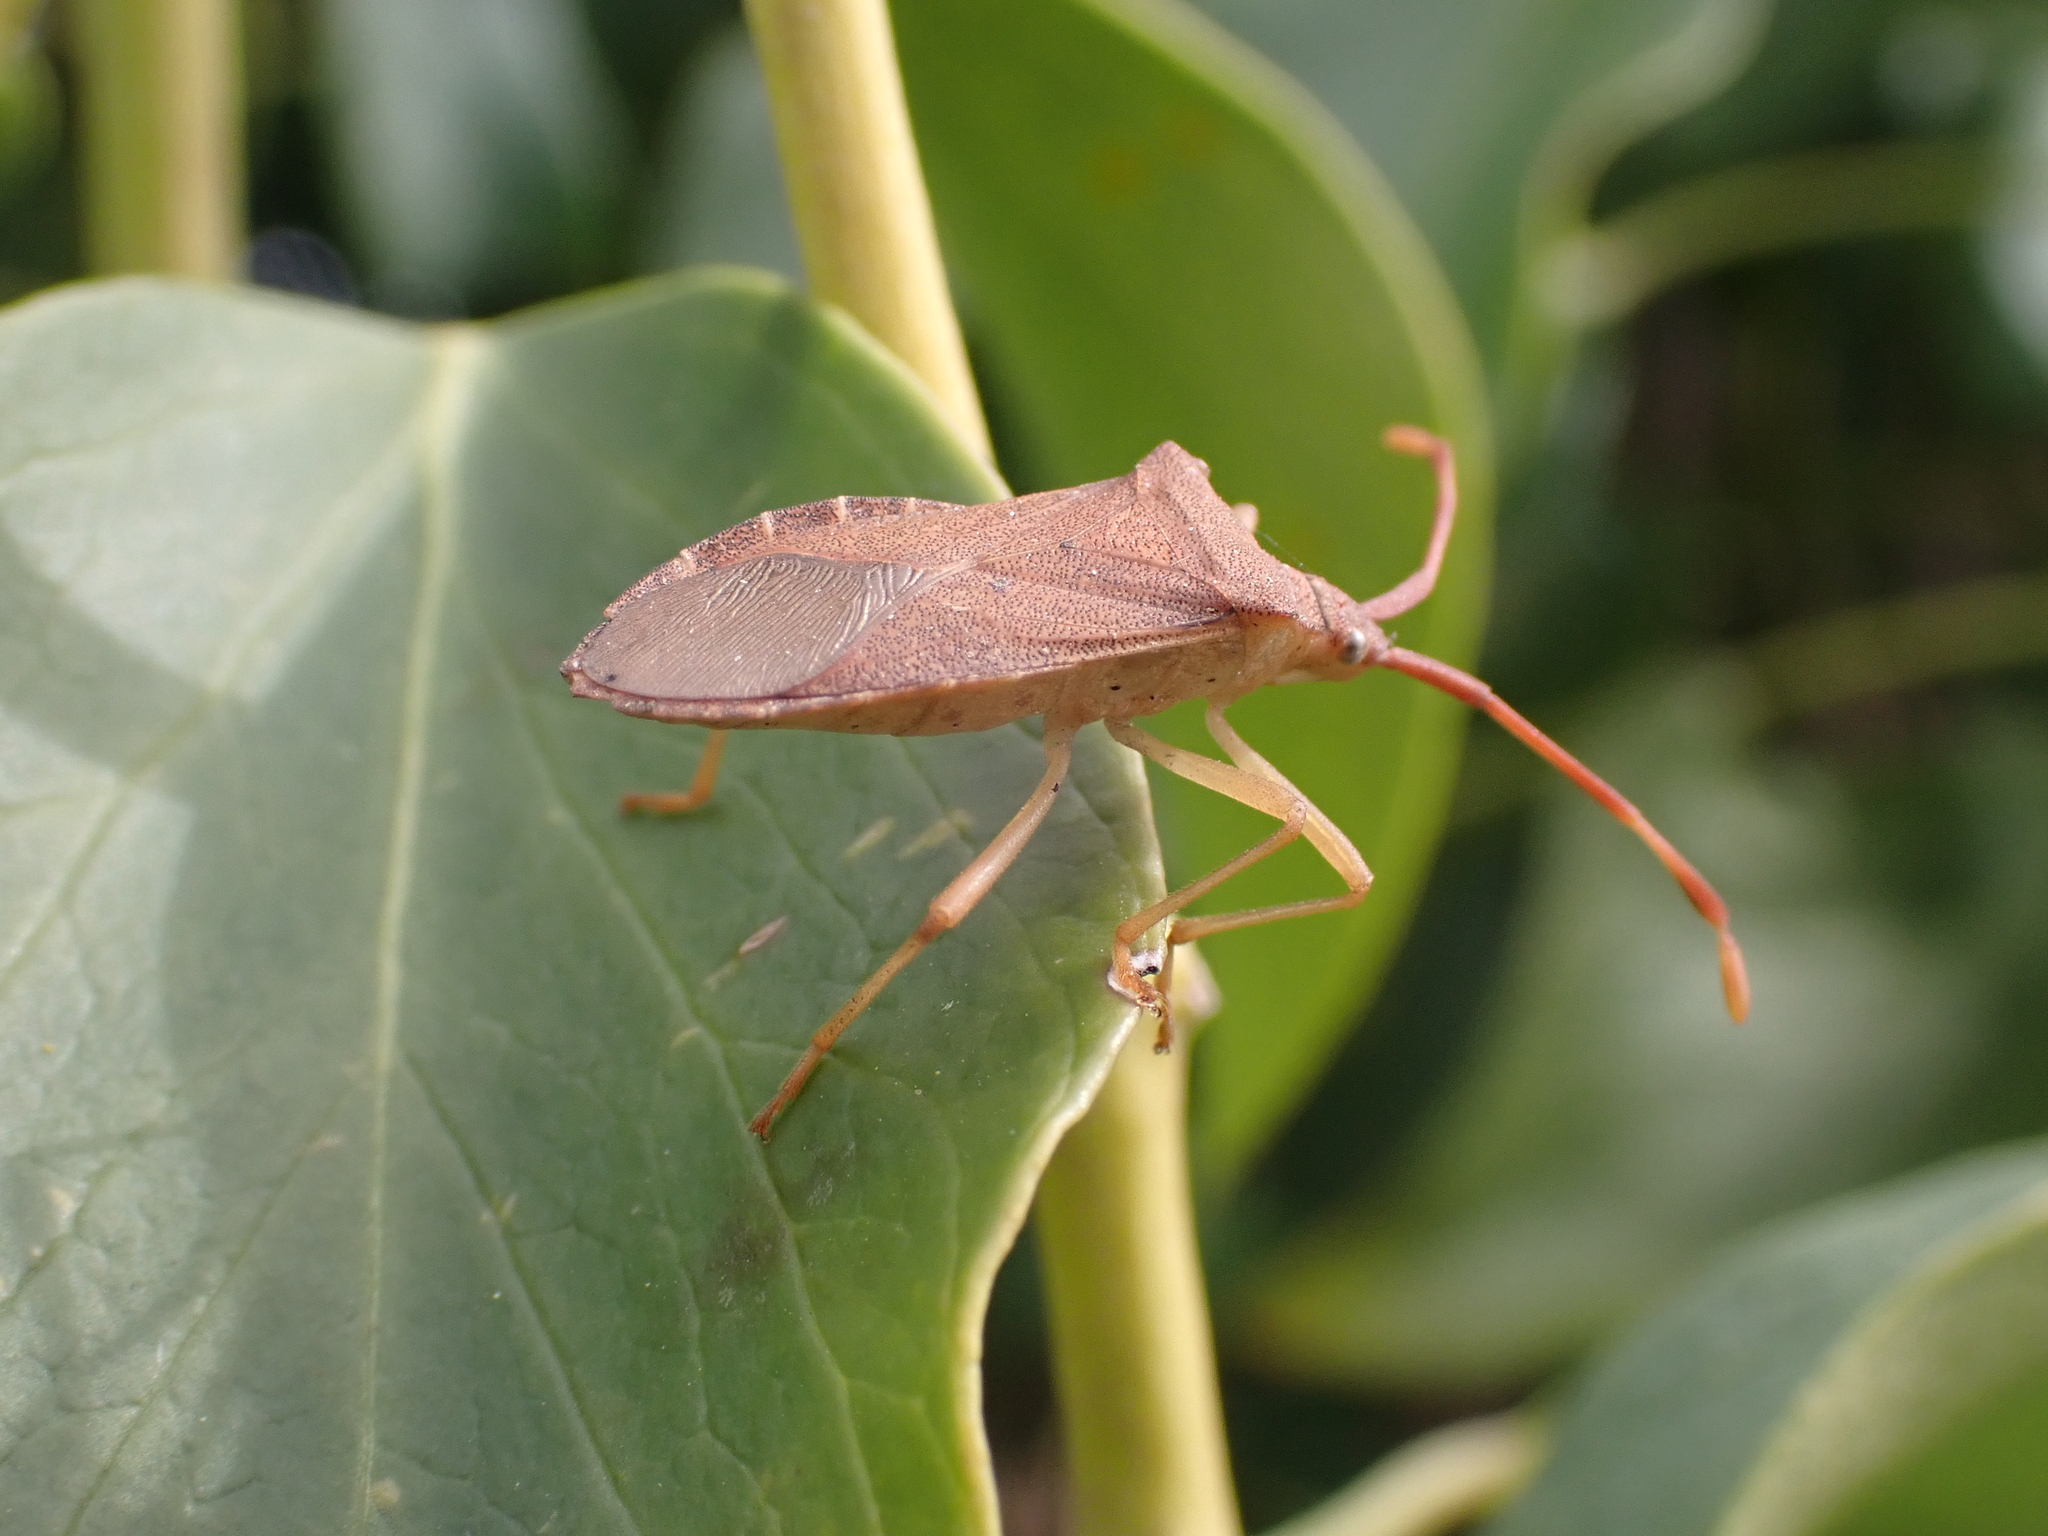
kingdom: Animalia
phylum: Arthropoda
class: Insecta
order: Hemiptera
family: Coreidae
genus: Gonocerus
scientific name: Gonocerus acuteangulatus
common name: Box bug
